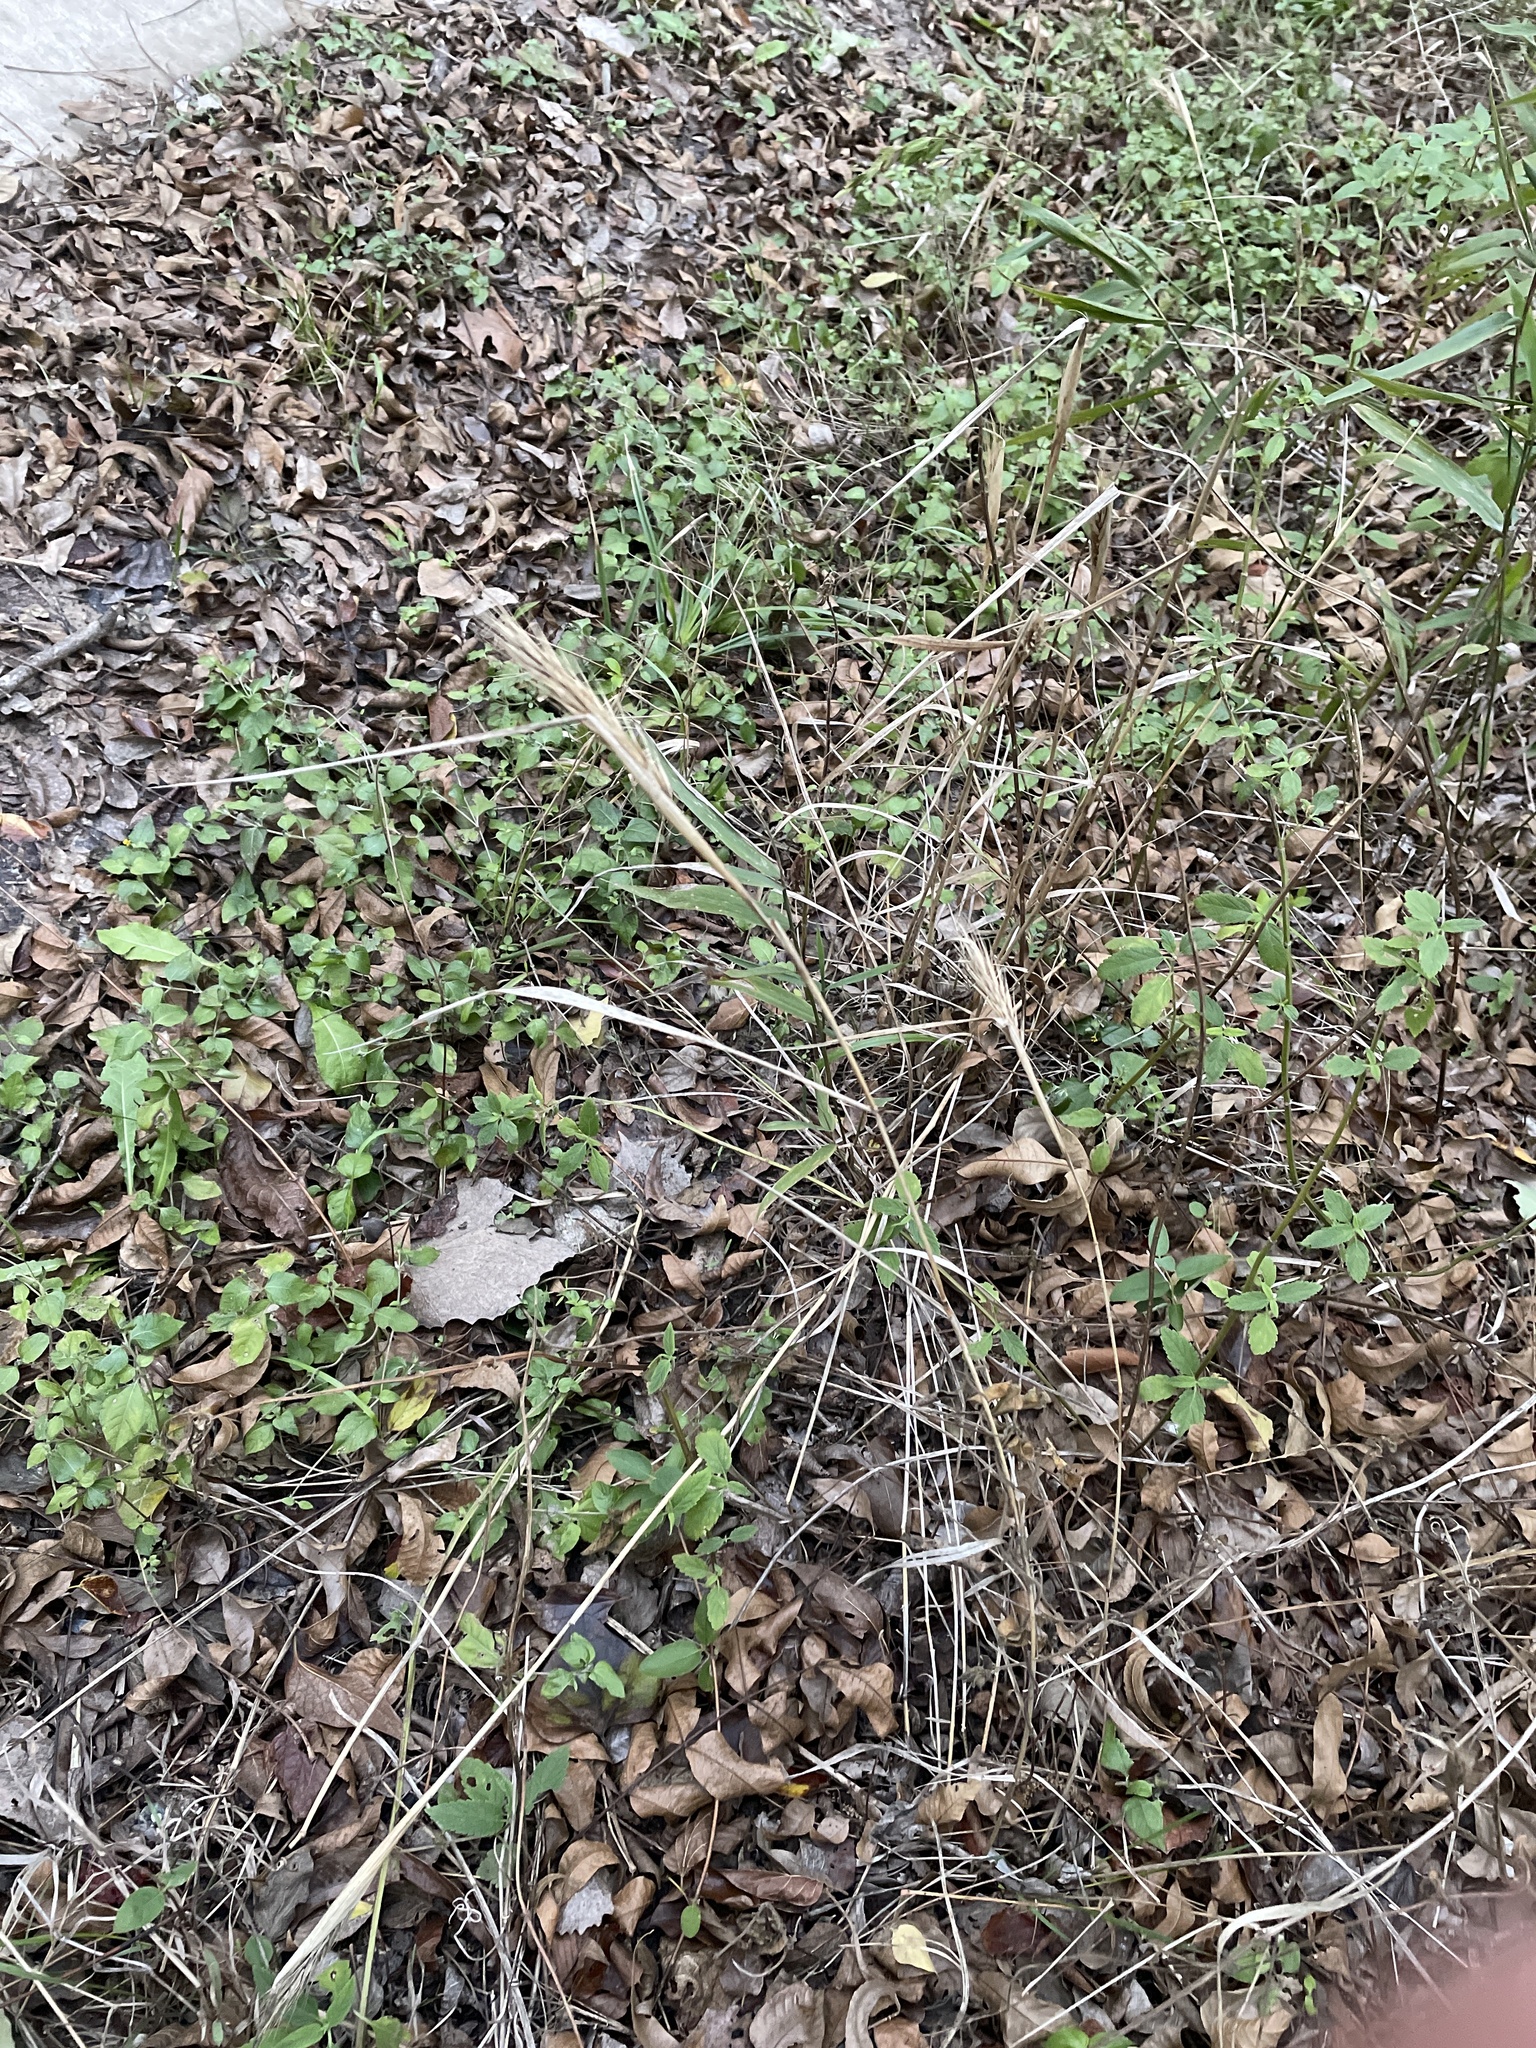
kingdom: Plantae
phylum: Tracheophyta
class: Liliopsida
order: Poales
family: Poaceae
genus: Elymus
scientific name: Elymus virginicus
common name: Common eastern wildrye
